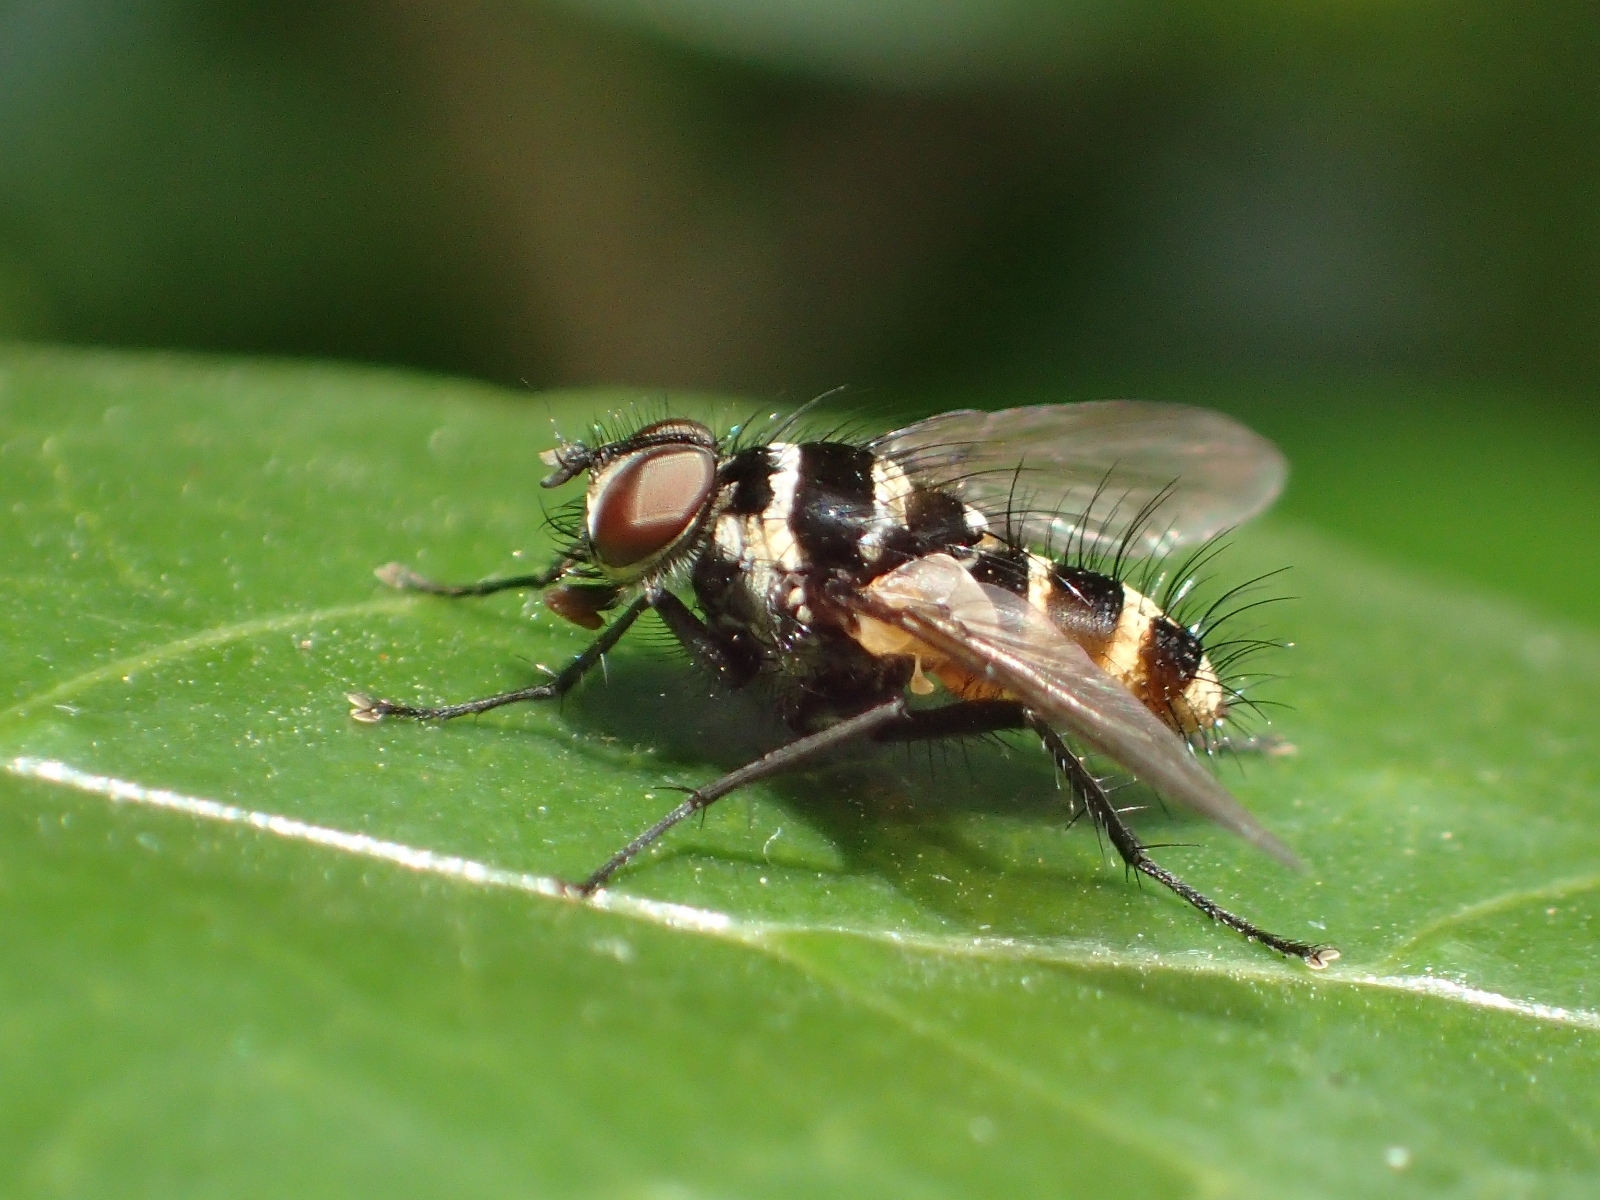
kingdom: Animalia
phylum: Arthropoda
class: Insecta
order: Diptera
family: Tachinidae
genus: Trigonospila
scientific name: Trigonospila brevifacies
